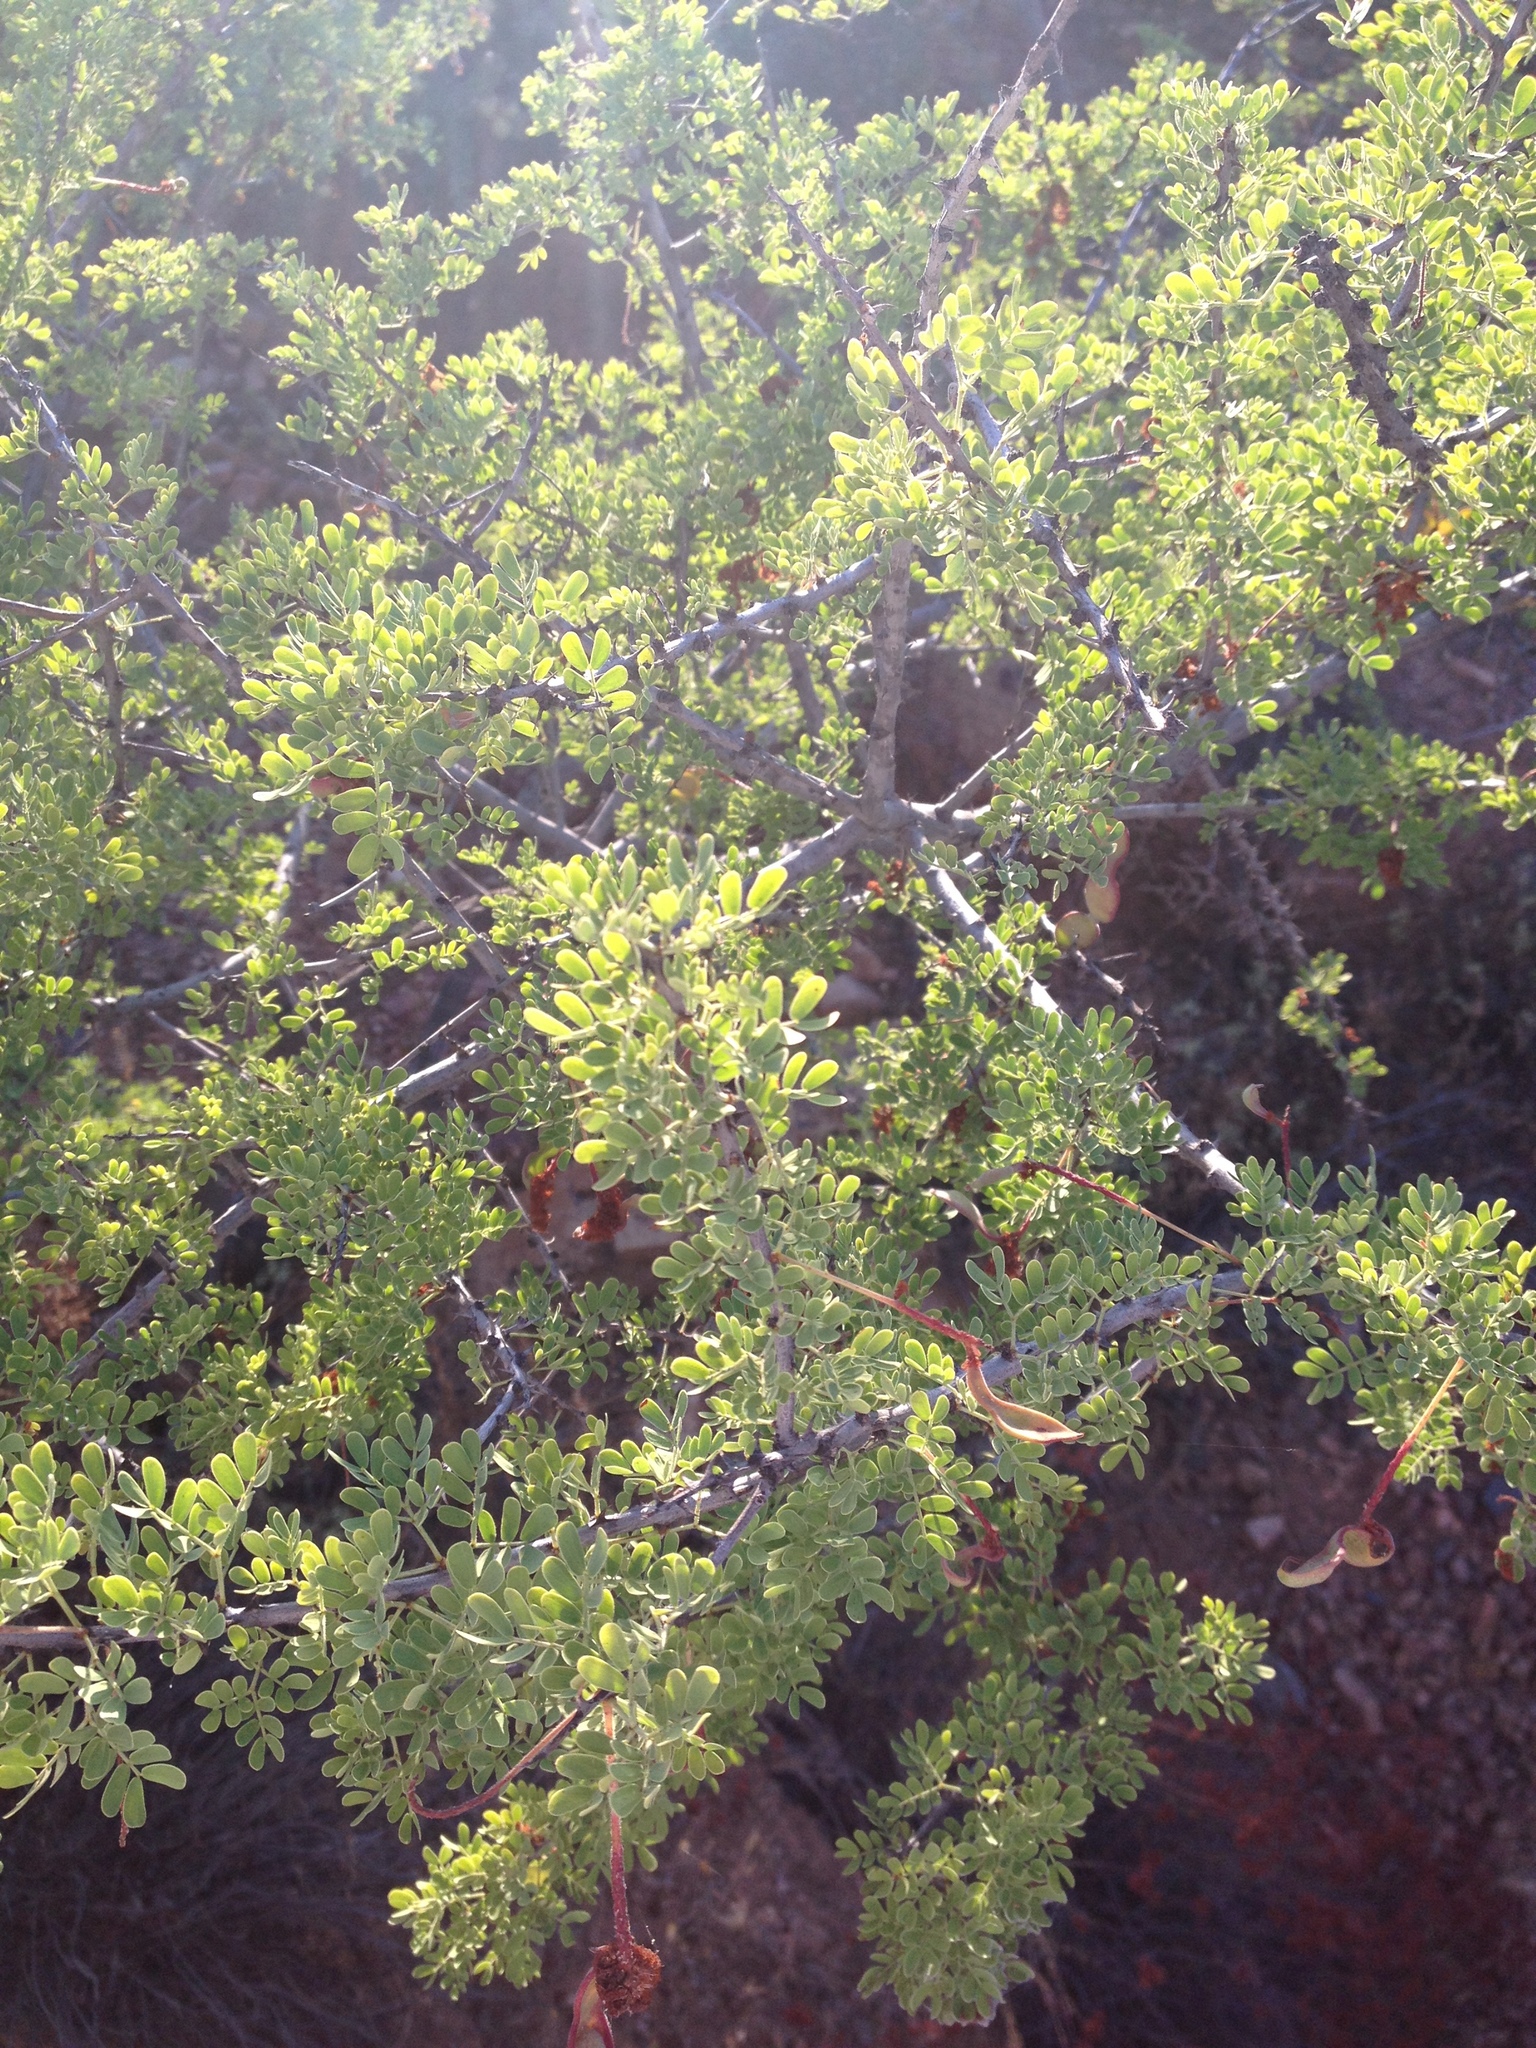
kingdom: Plantae
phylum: Tracheophyta
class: Magnoliopsida
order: Fabales
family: Fabaceae
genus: Senegalia
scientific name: Senegalia greggii
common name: Texas-mimosa
